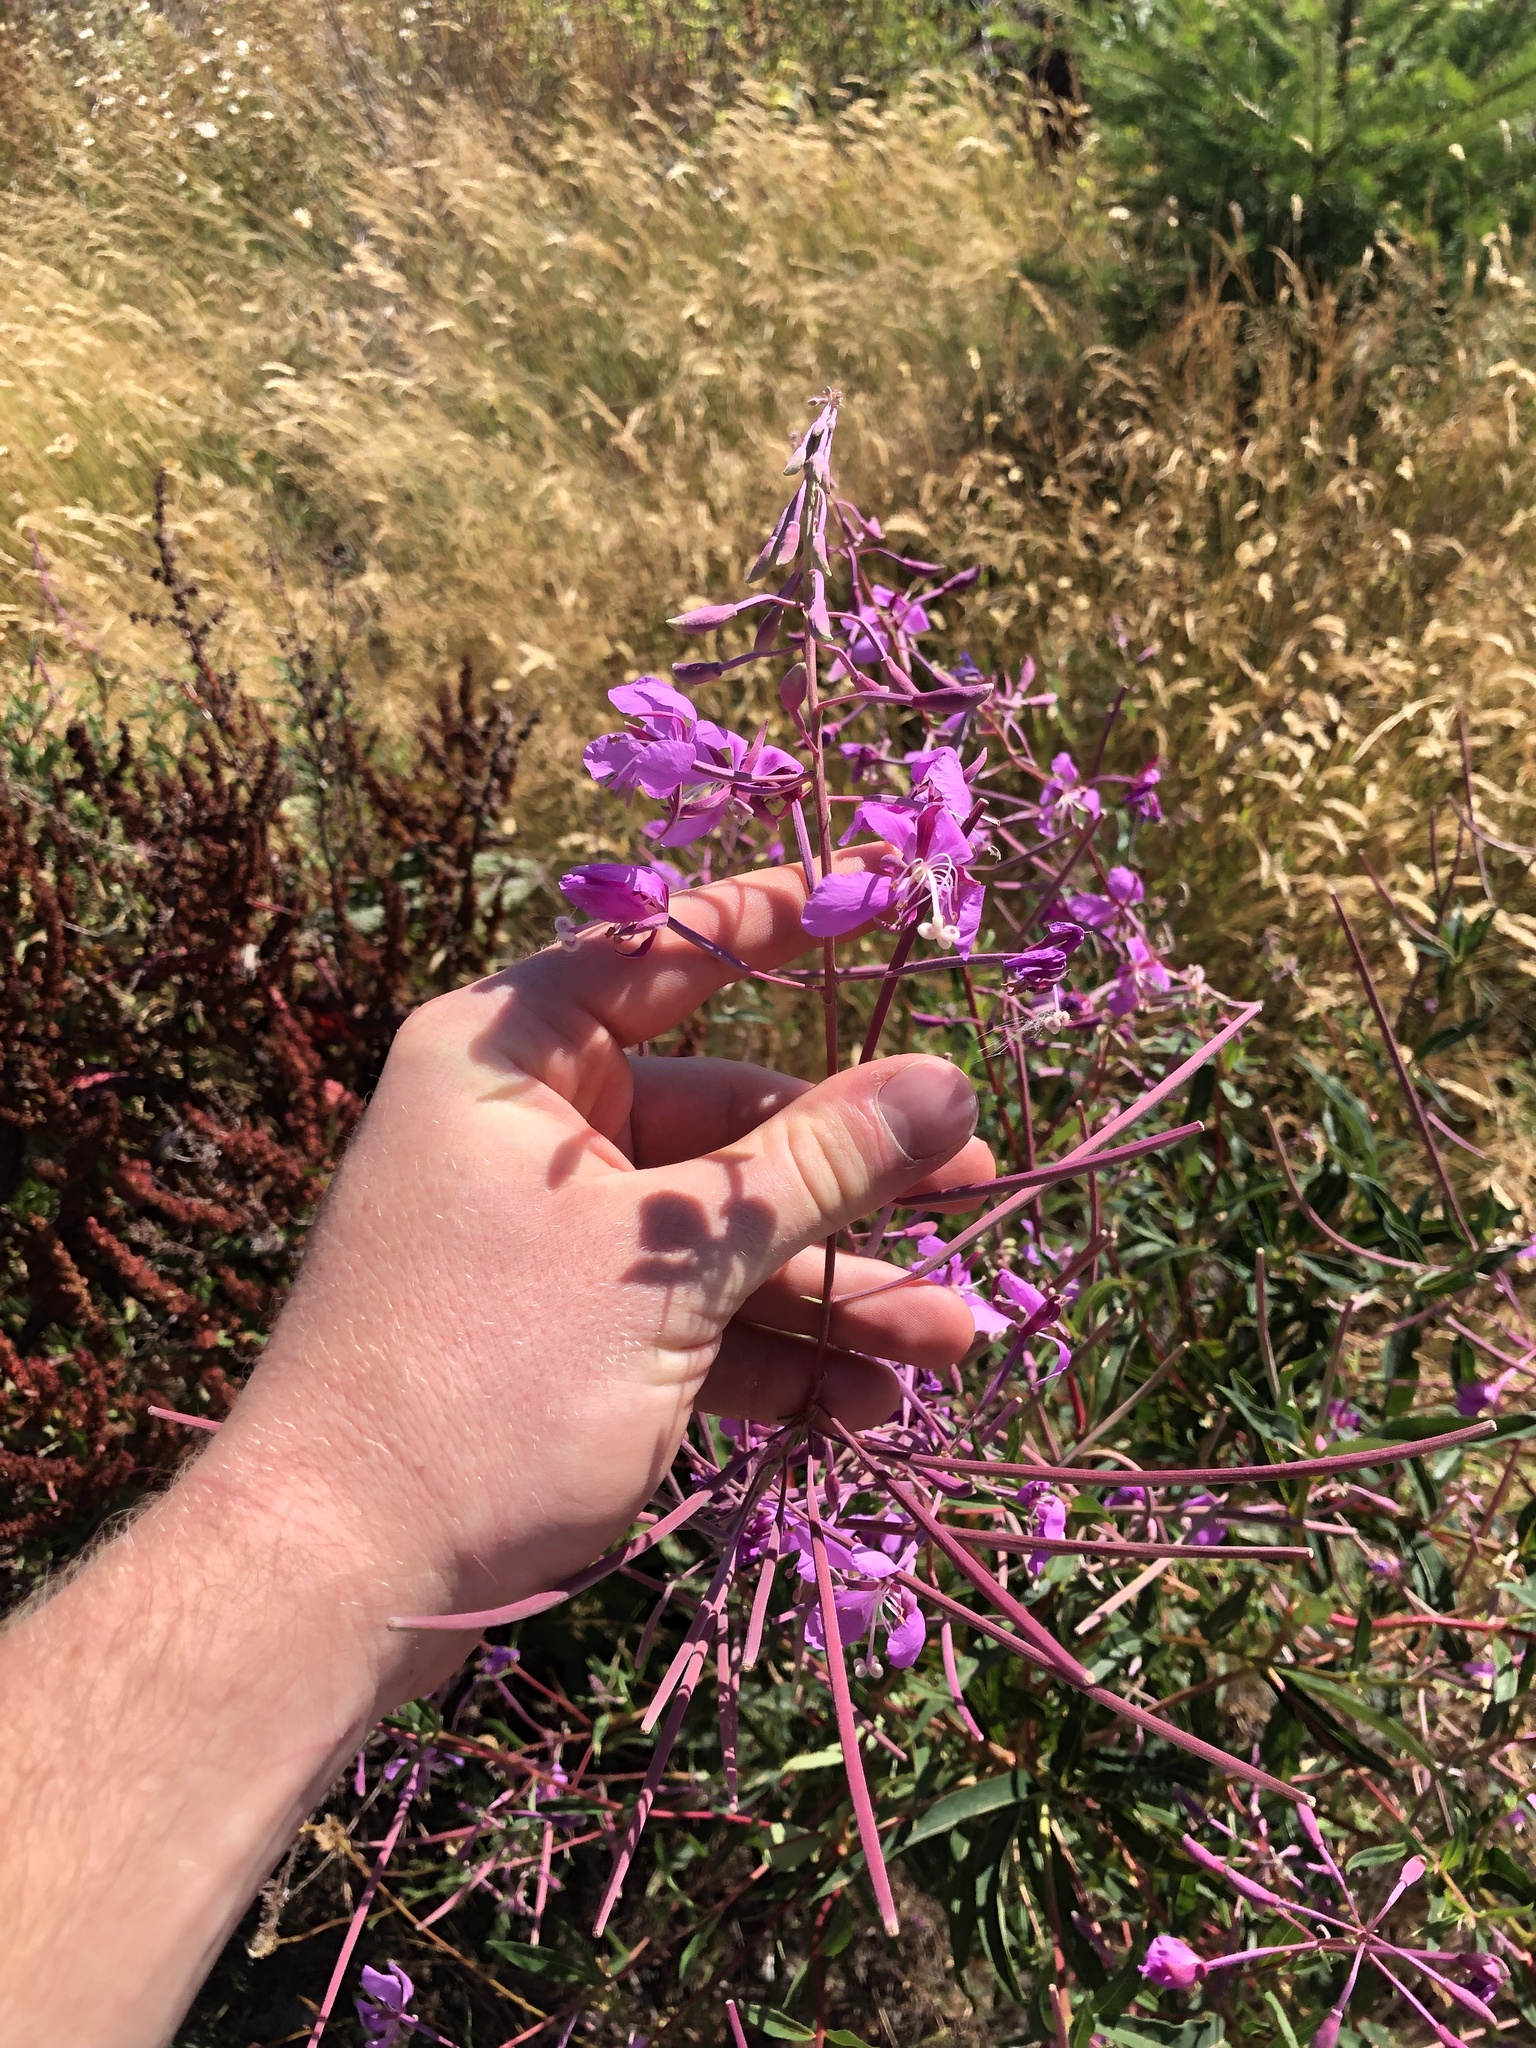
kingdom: Plantae
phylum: Tracheophyta
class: Magnoliopsida
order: Myrtales
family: Onagraceae
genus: Chamaenerion
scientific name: Chamaenerion angustifolium
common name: Fireweed
